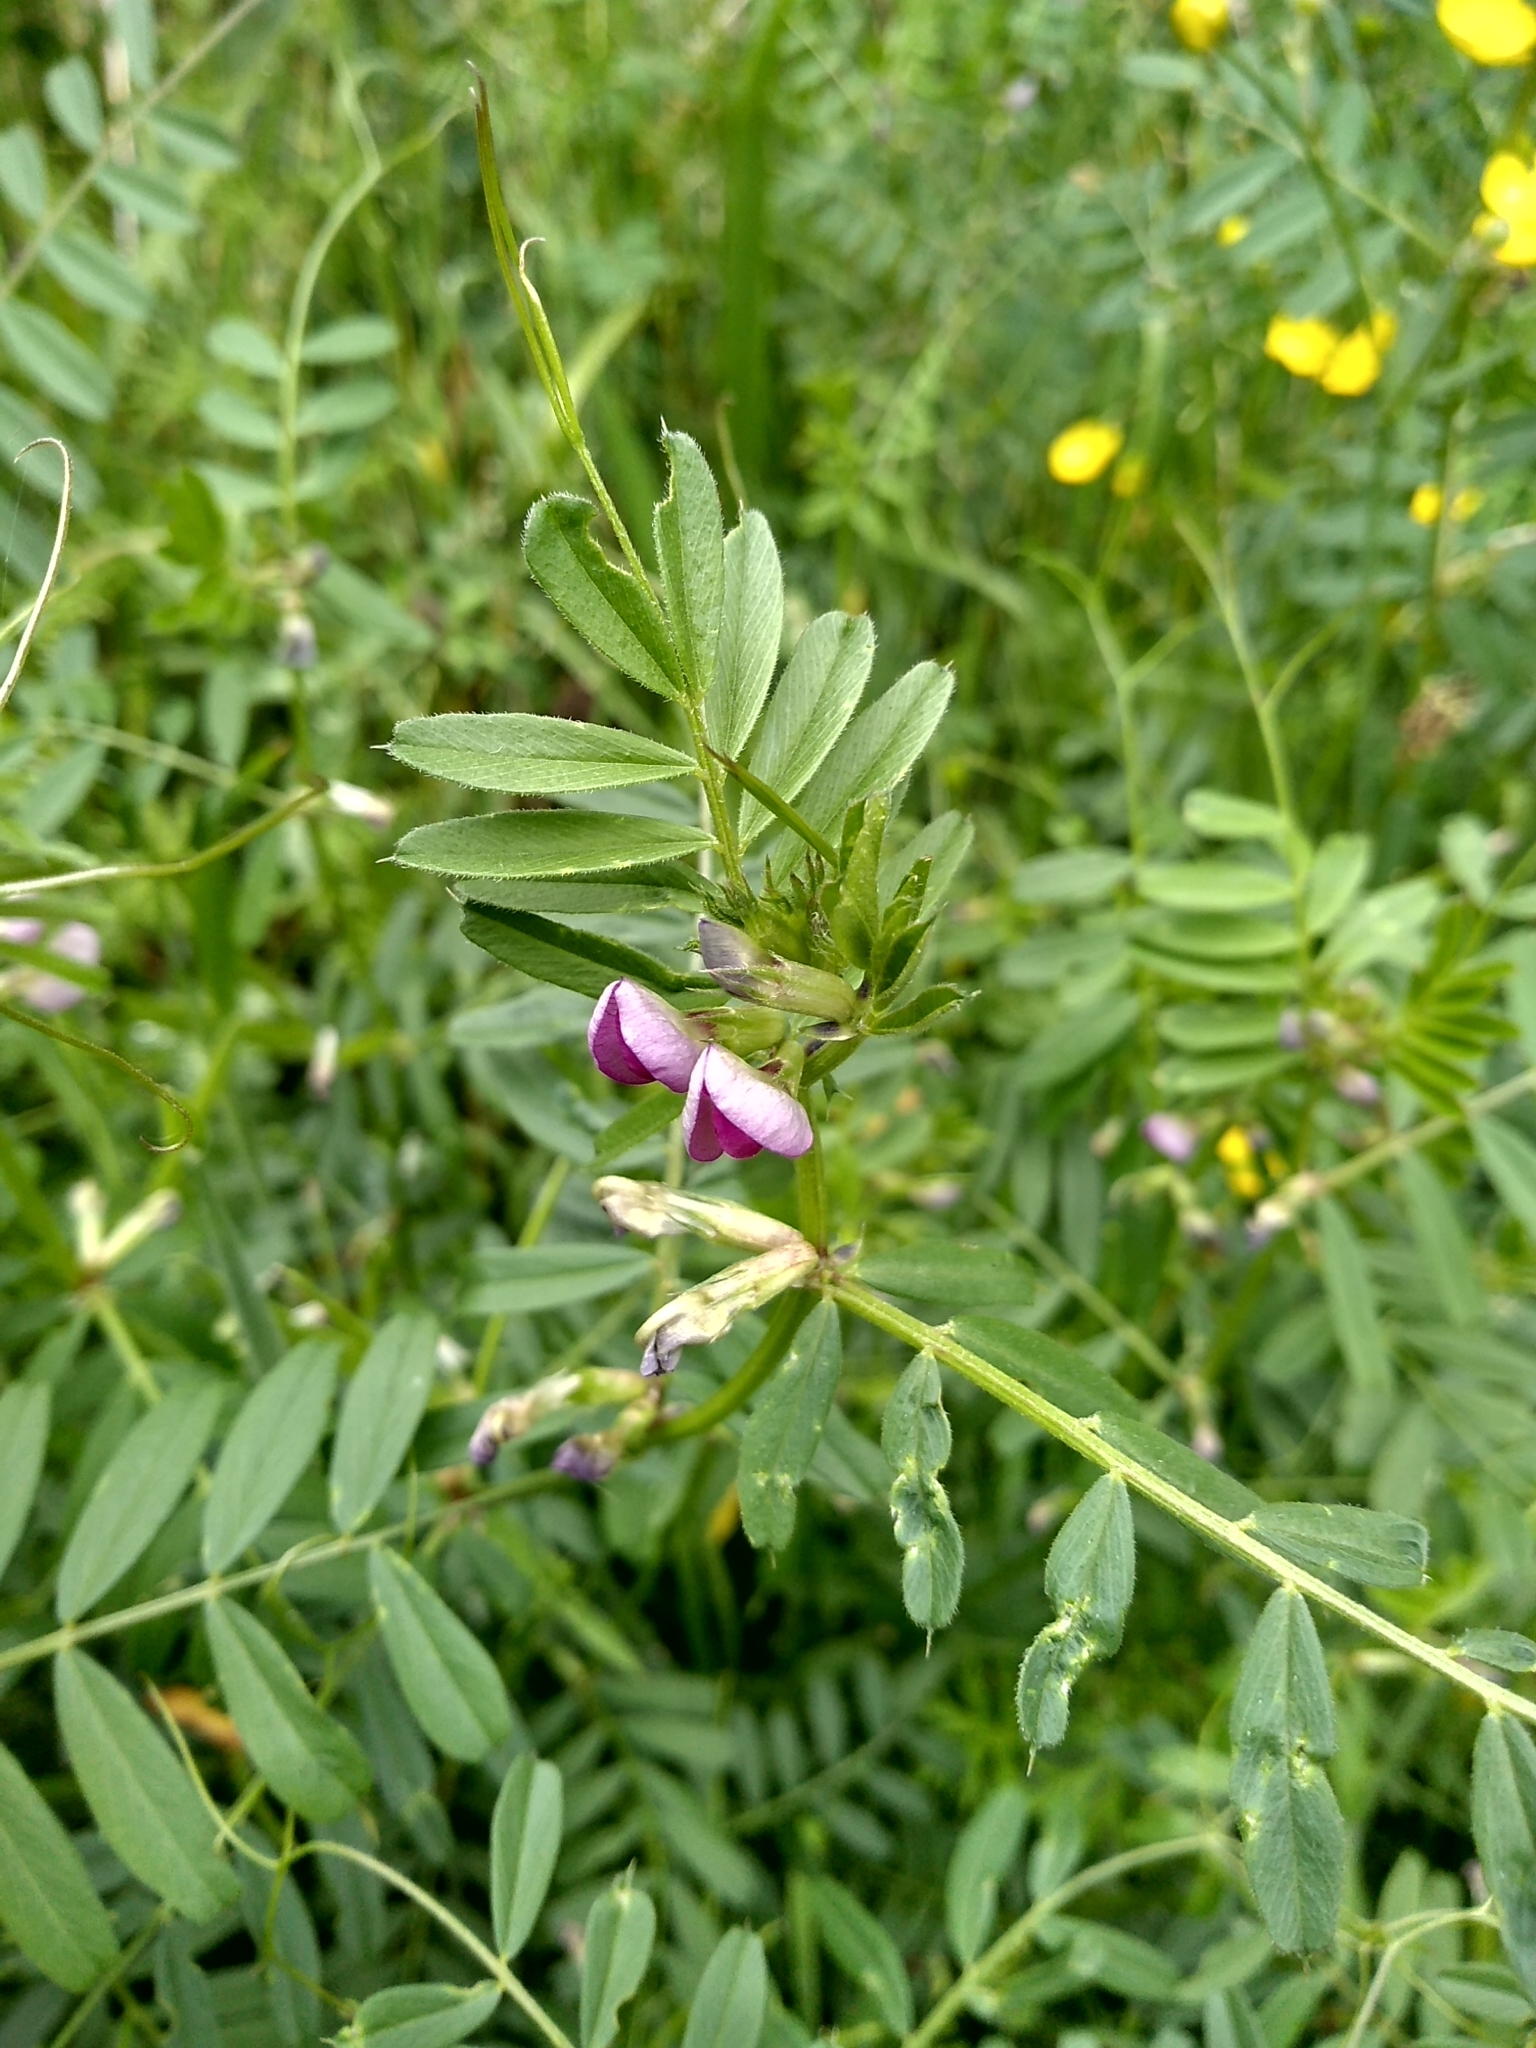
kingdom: Plantae
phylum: Tracheophyta
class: Magnoliopsida
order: Fabales
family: Fabaceae
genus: Vicia
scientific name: Vicia sativa
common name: Garden vetch
